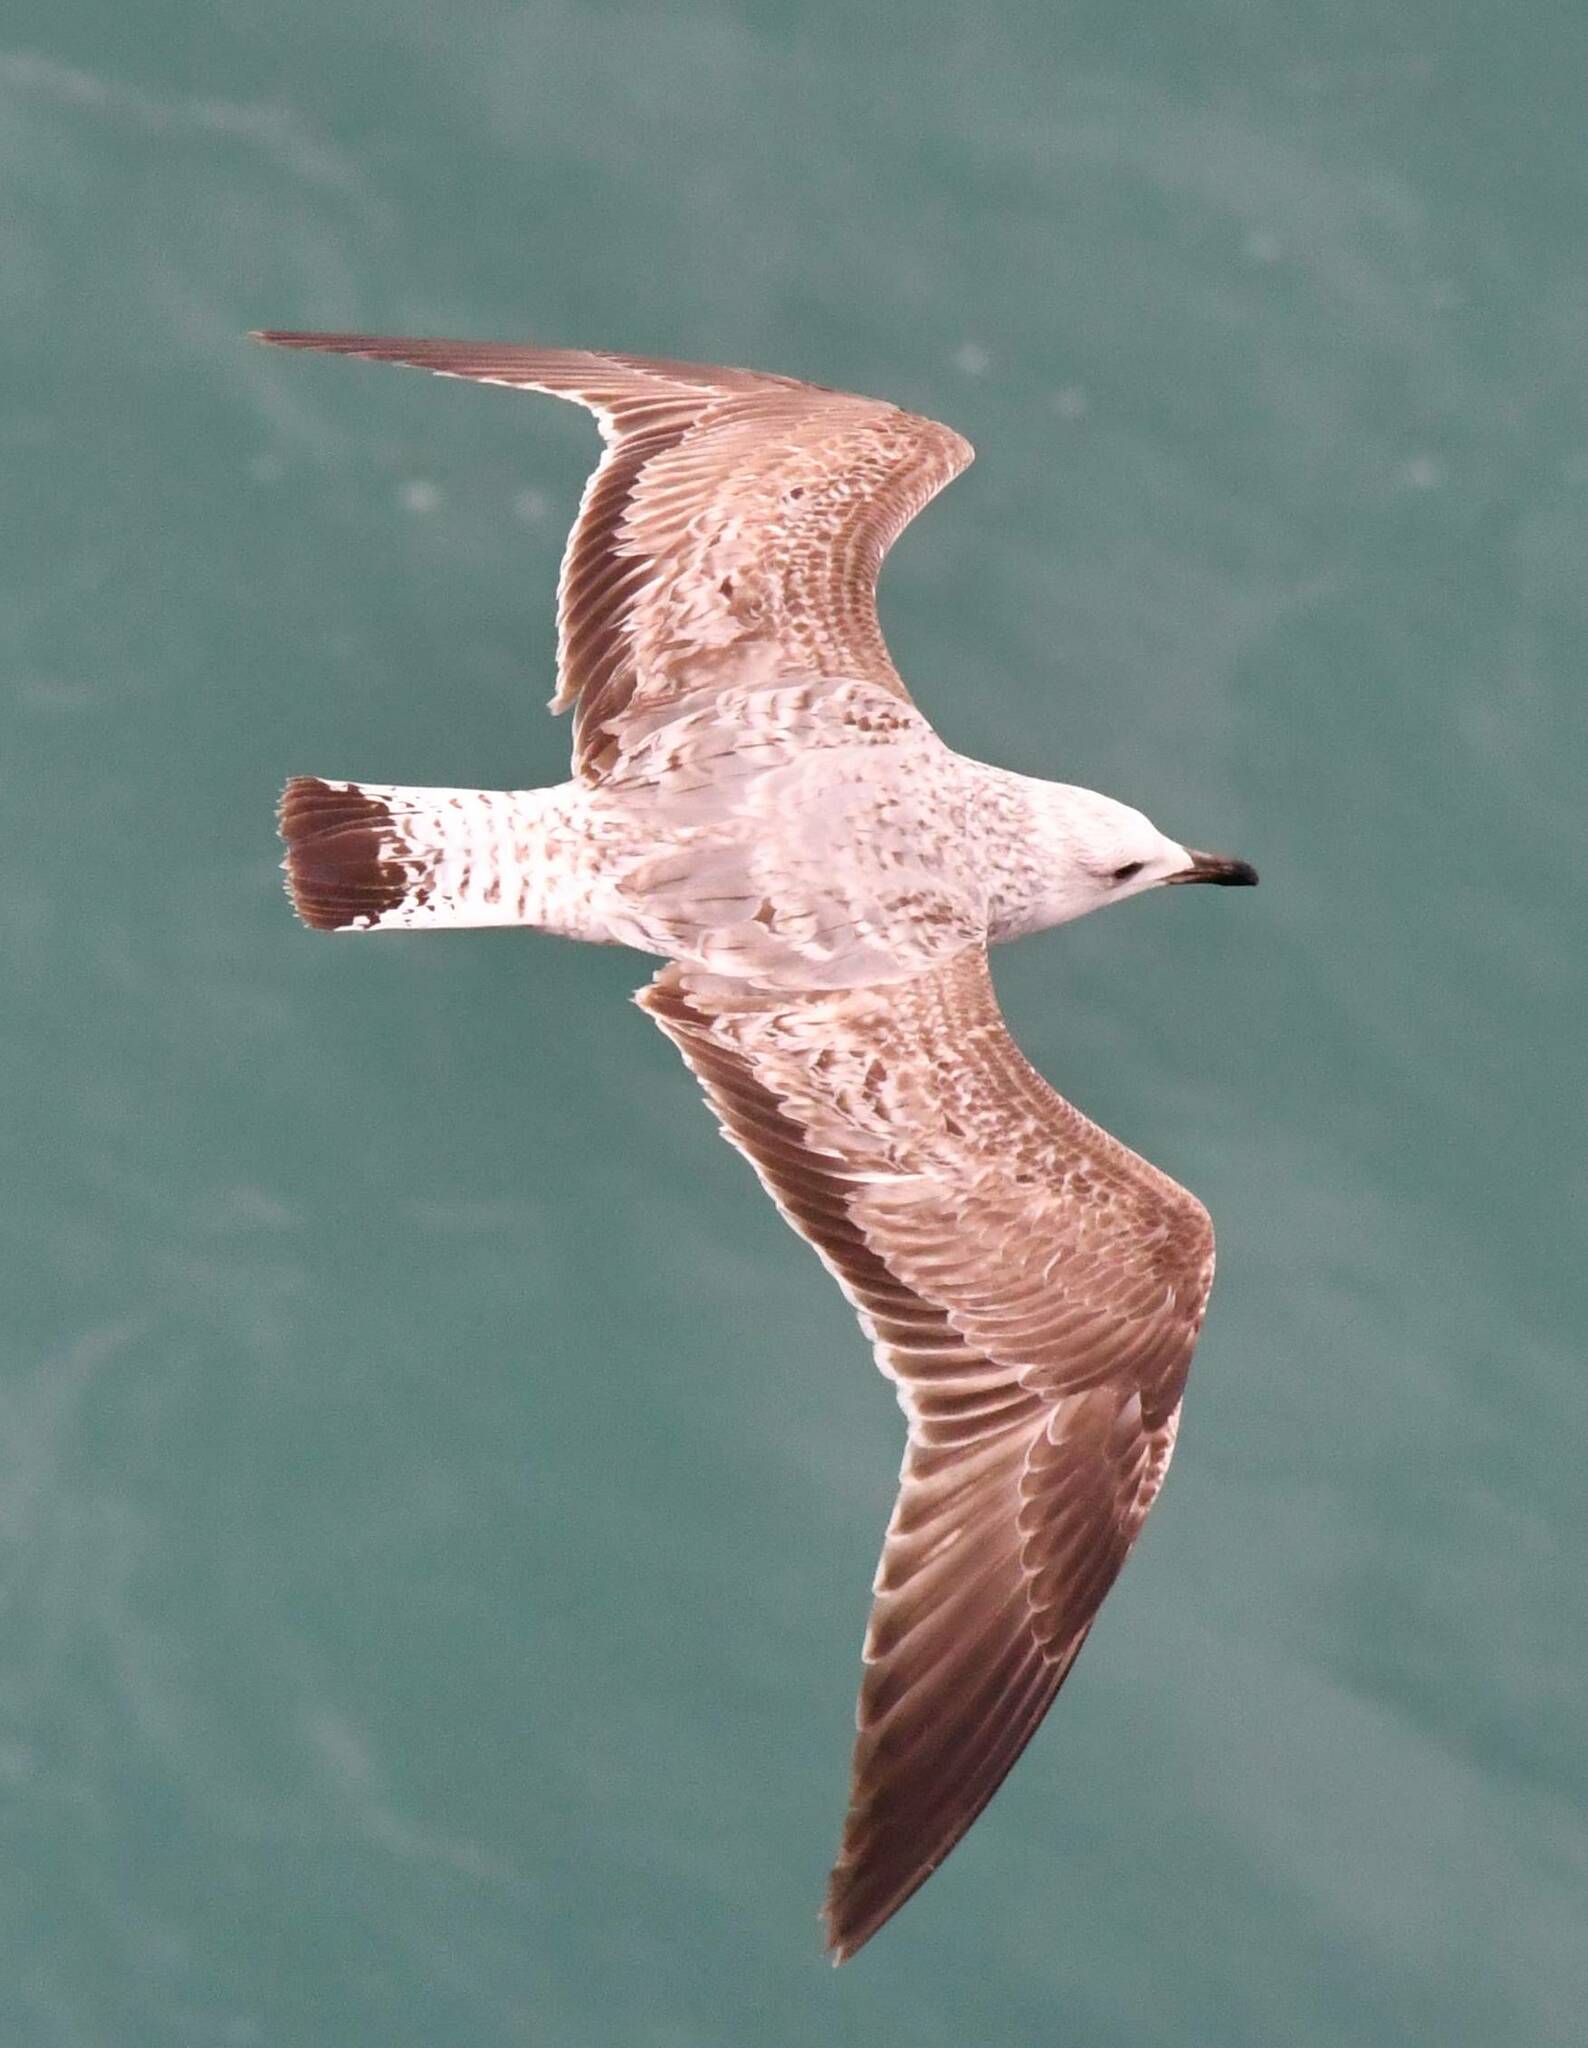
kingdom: Animalia
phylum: Chordata
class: Aves
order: Charadriiformes
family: Laridae
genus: Larus
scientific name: Larus michahellis
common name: Yellow-legged gull
